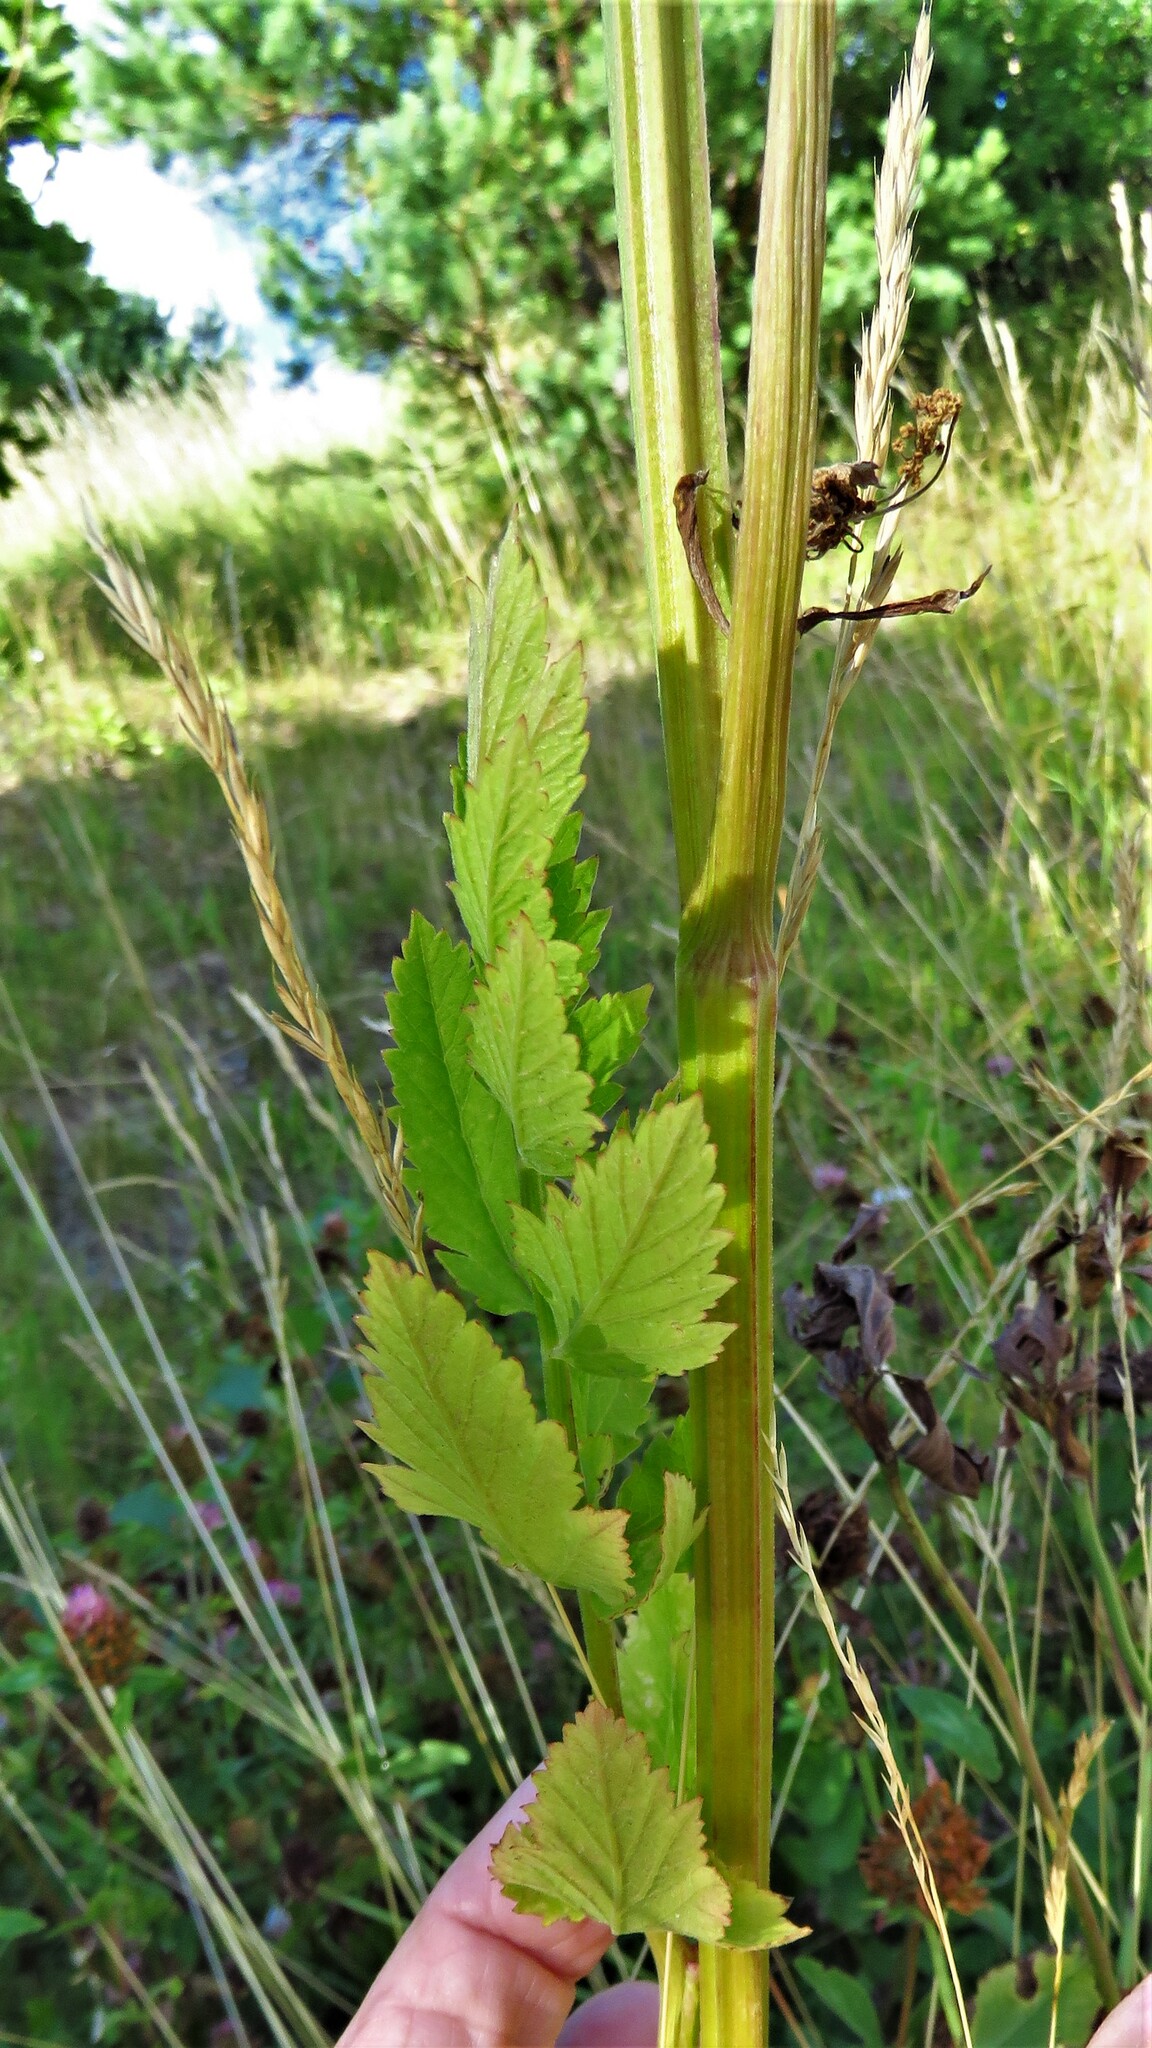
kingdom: Plantae
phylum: Tracheophyta
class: Magnoliopsida
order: Apiales
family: Apiaceae
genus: Pastinaca
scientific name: Pastinaca sativa
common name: Wild parsnip
